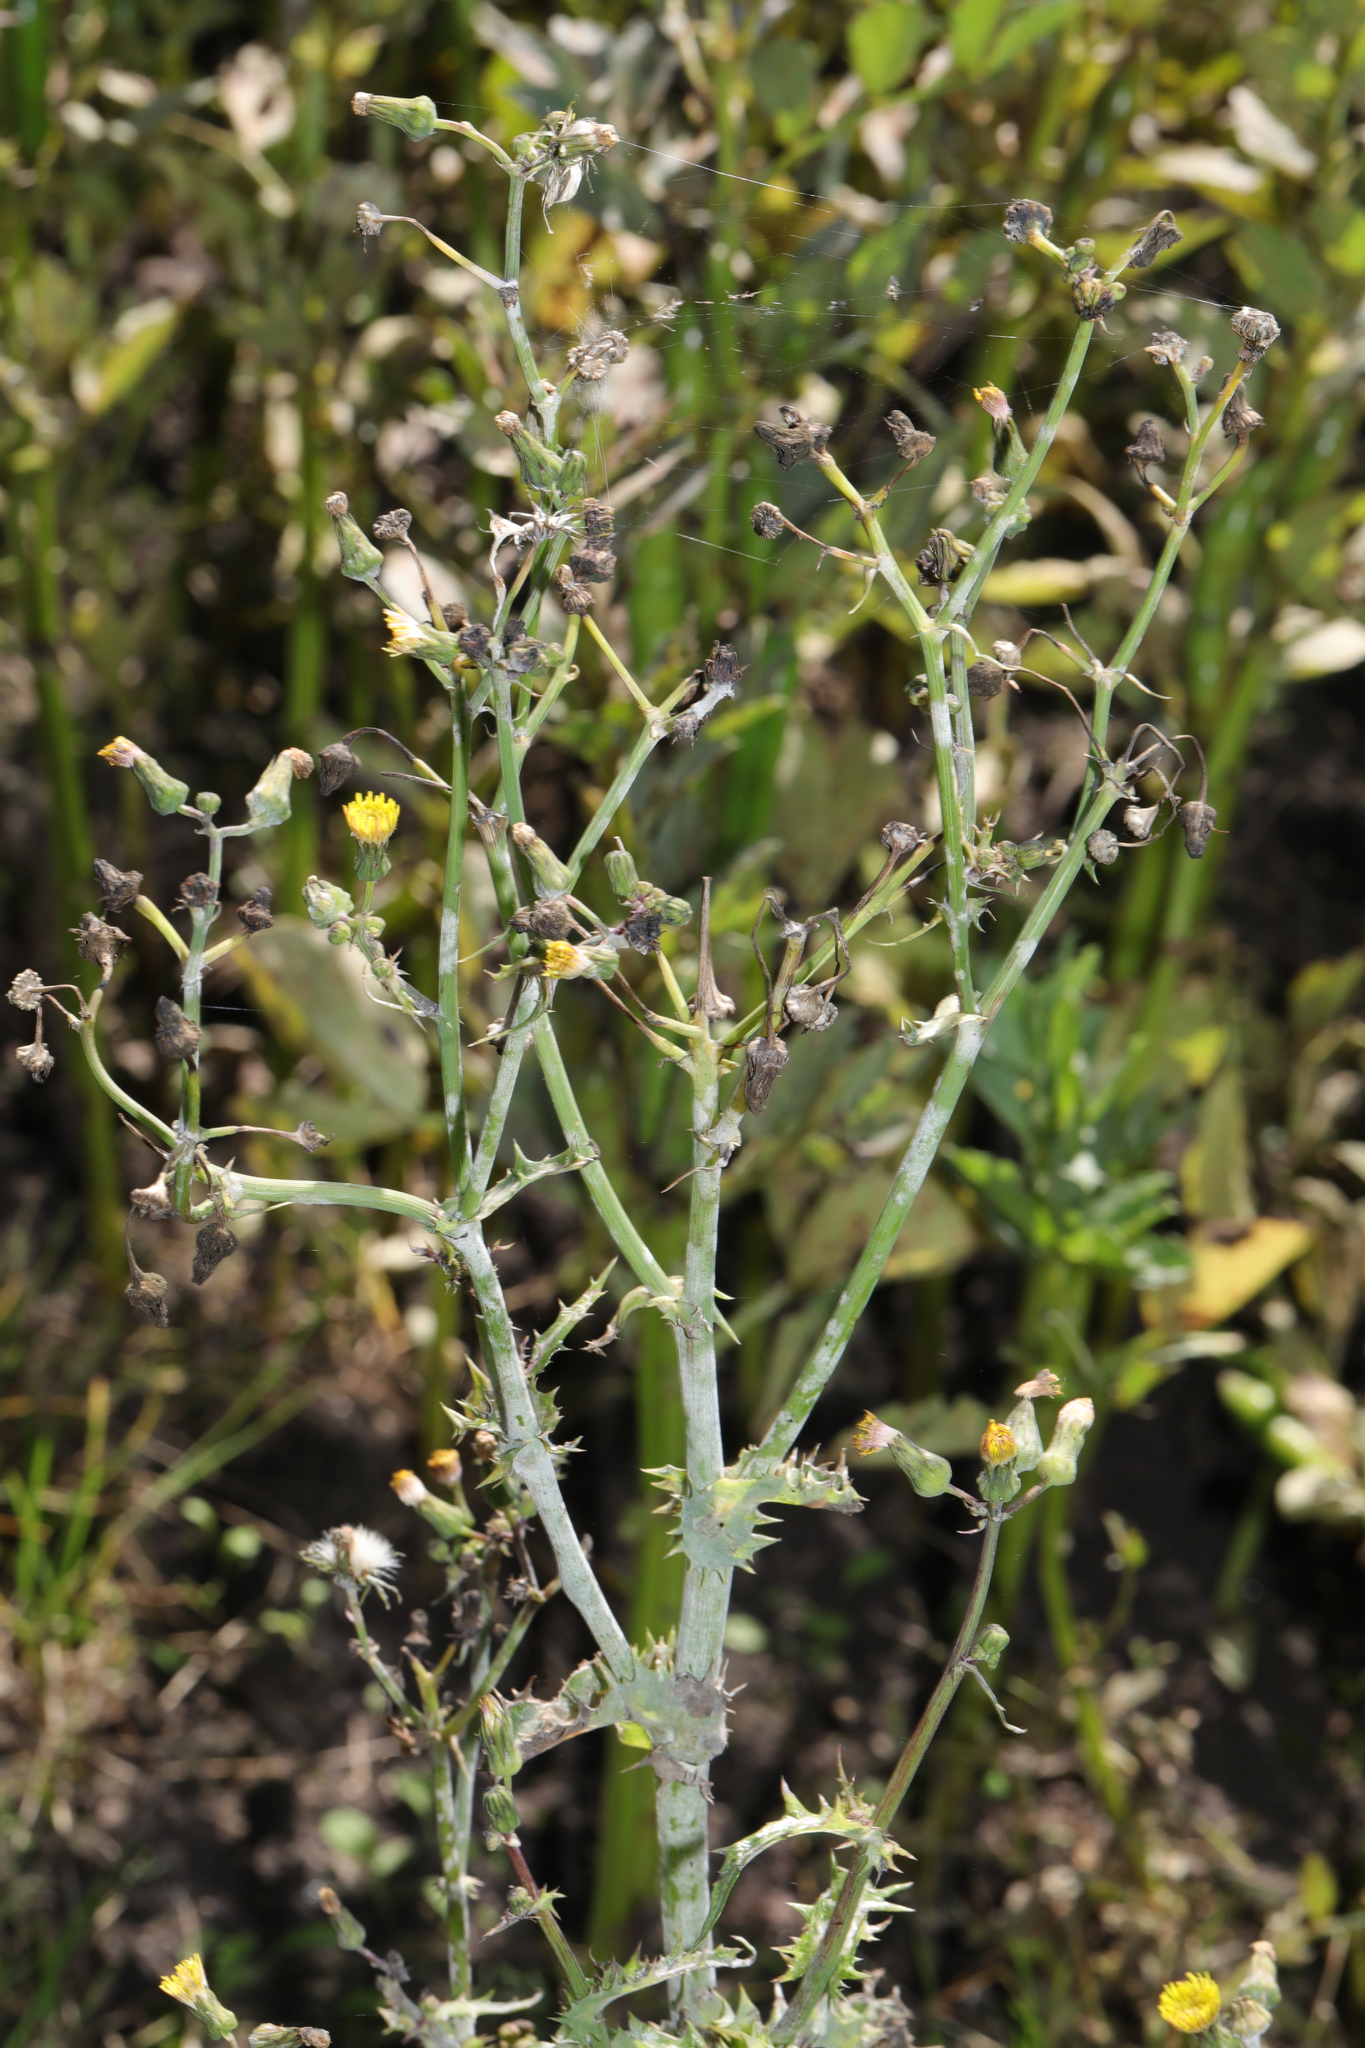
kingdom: Plantae
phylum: Tracheophyta
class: Magnoliopsida
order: Asterales
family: Asteraceae
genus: Sonchus
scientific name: Sonchus asper
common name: Prickly sow-thistle
